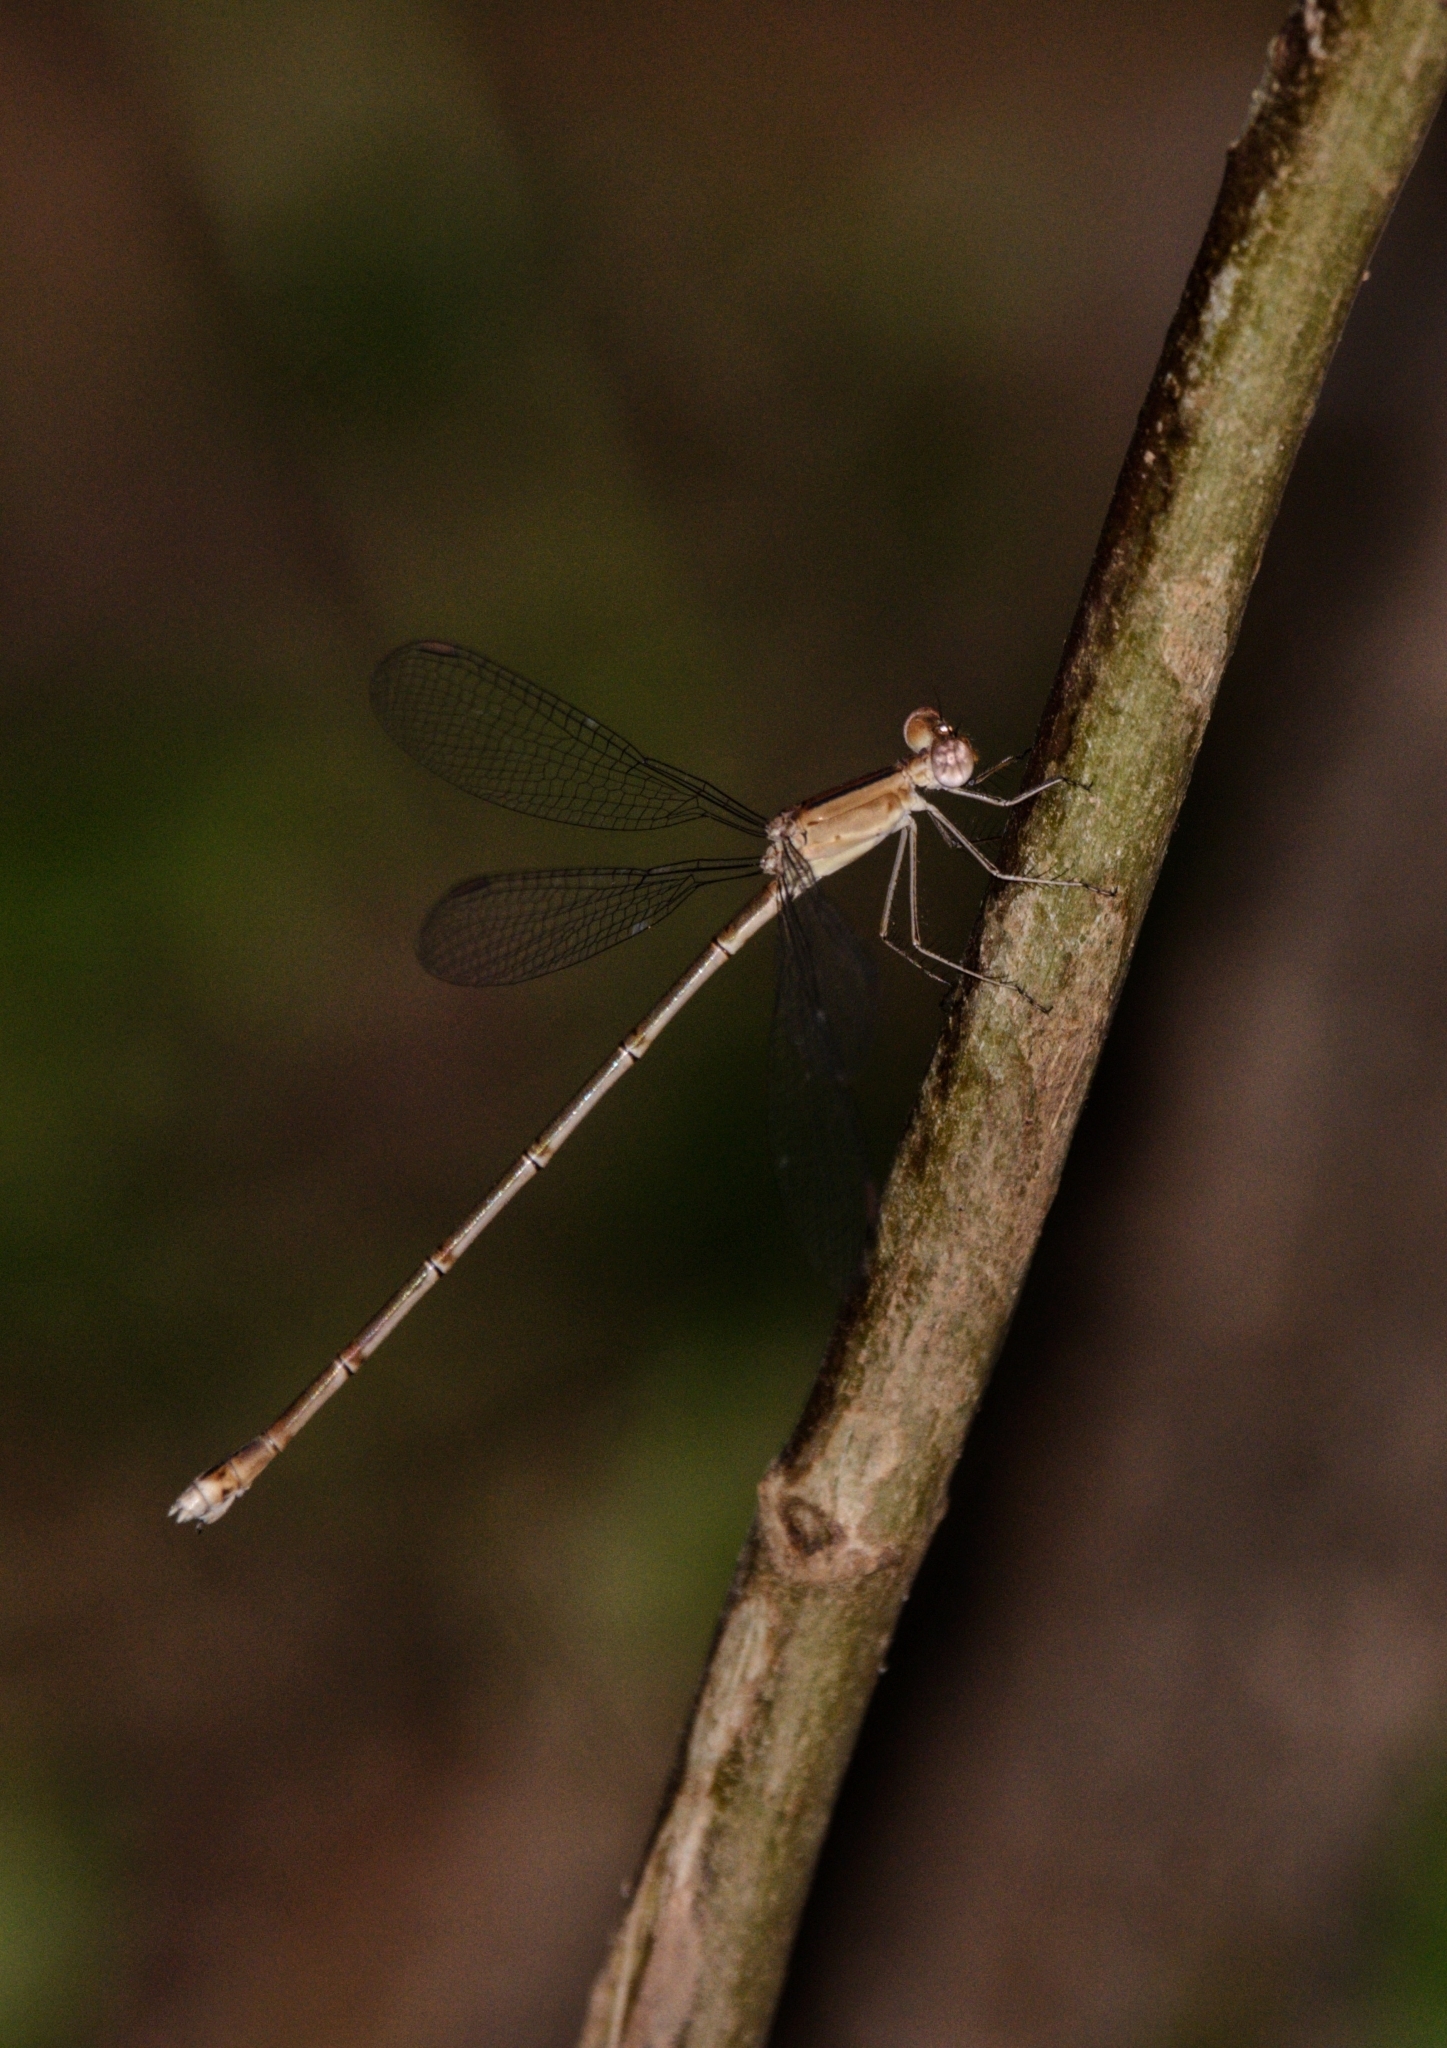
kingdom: Animalia
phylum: Arthropoda
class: Insecta
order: Odonata
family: Lestidae
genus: Lestes
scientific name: Lestes viridulus
